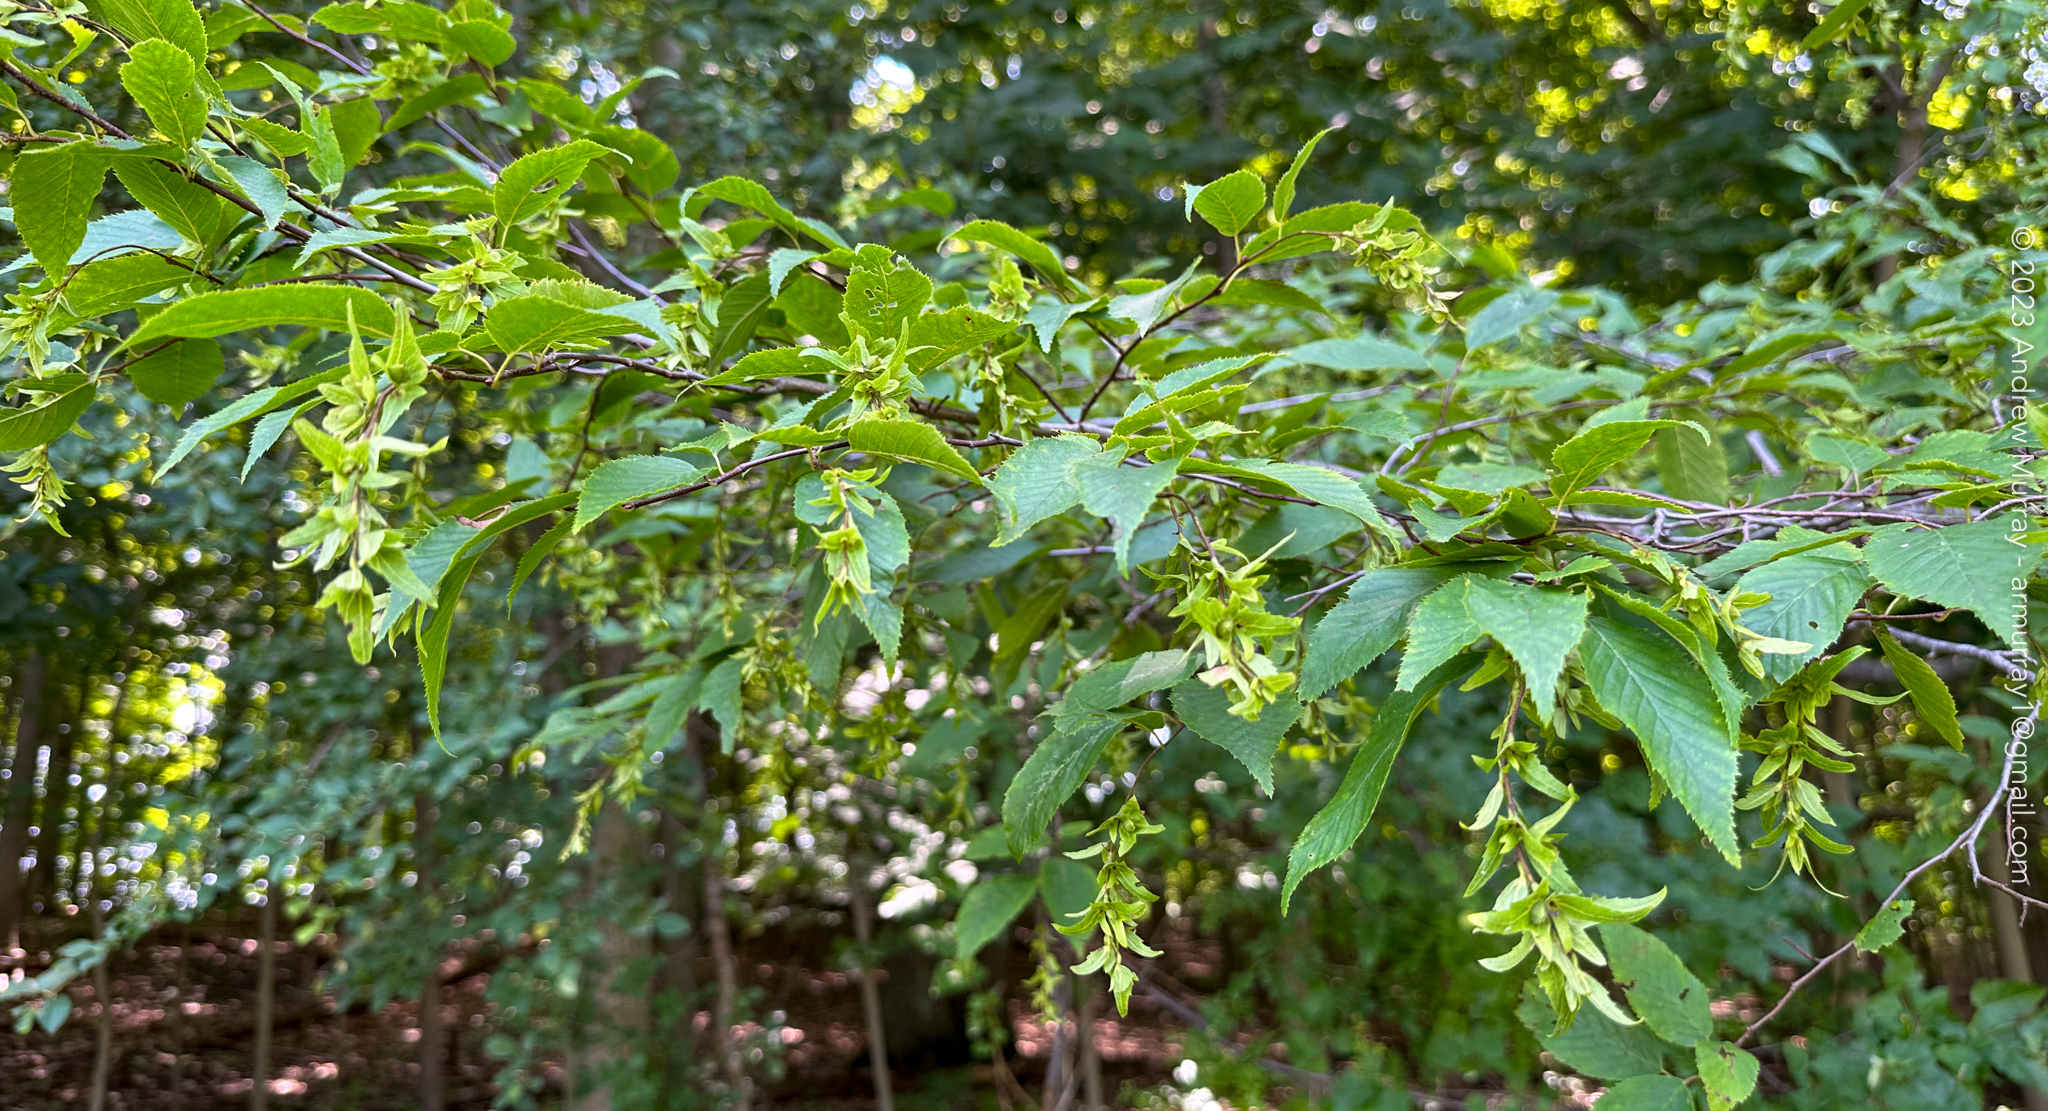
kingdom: Plantae
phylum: Tracheophyta
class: Magnoliopsida
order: Fagales
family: Betulaceae
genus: Carpinus
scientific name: Carpinus caroliniana
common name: American hornbeam
